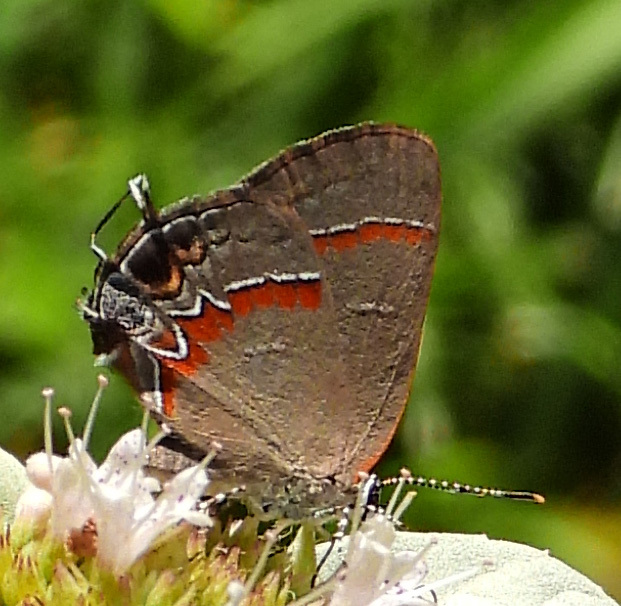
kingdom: Animalia
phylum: Arthropoda
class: Insecta
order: Lepidoptera
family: Lycaenidae
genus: Calycopis
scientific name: Calycopis cecrops
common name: Red-banded hairstreak
